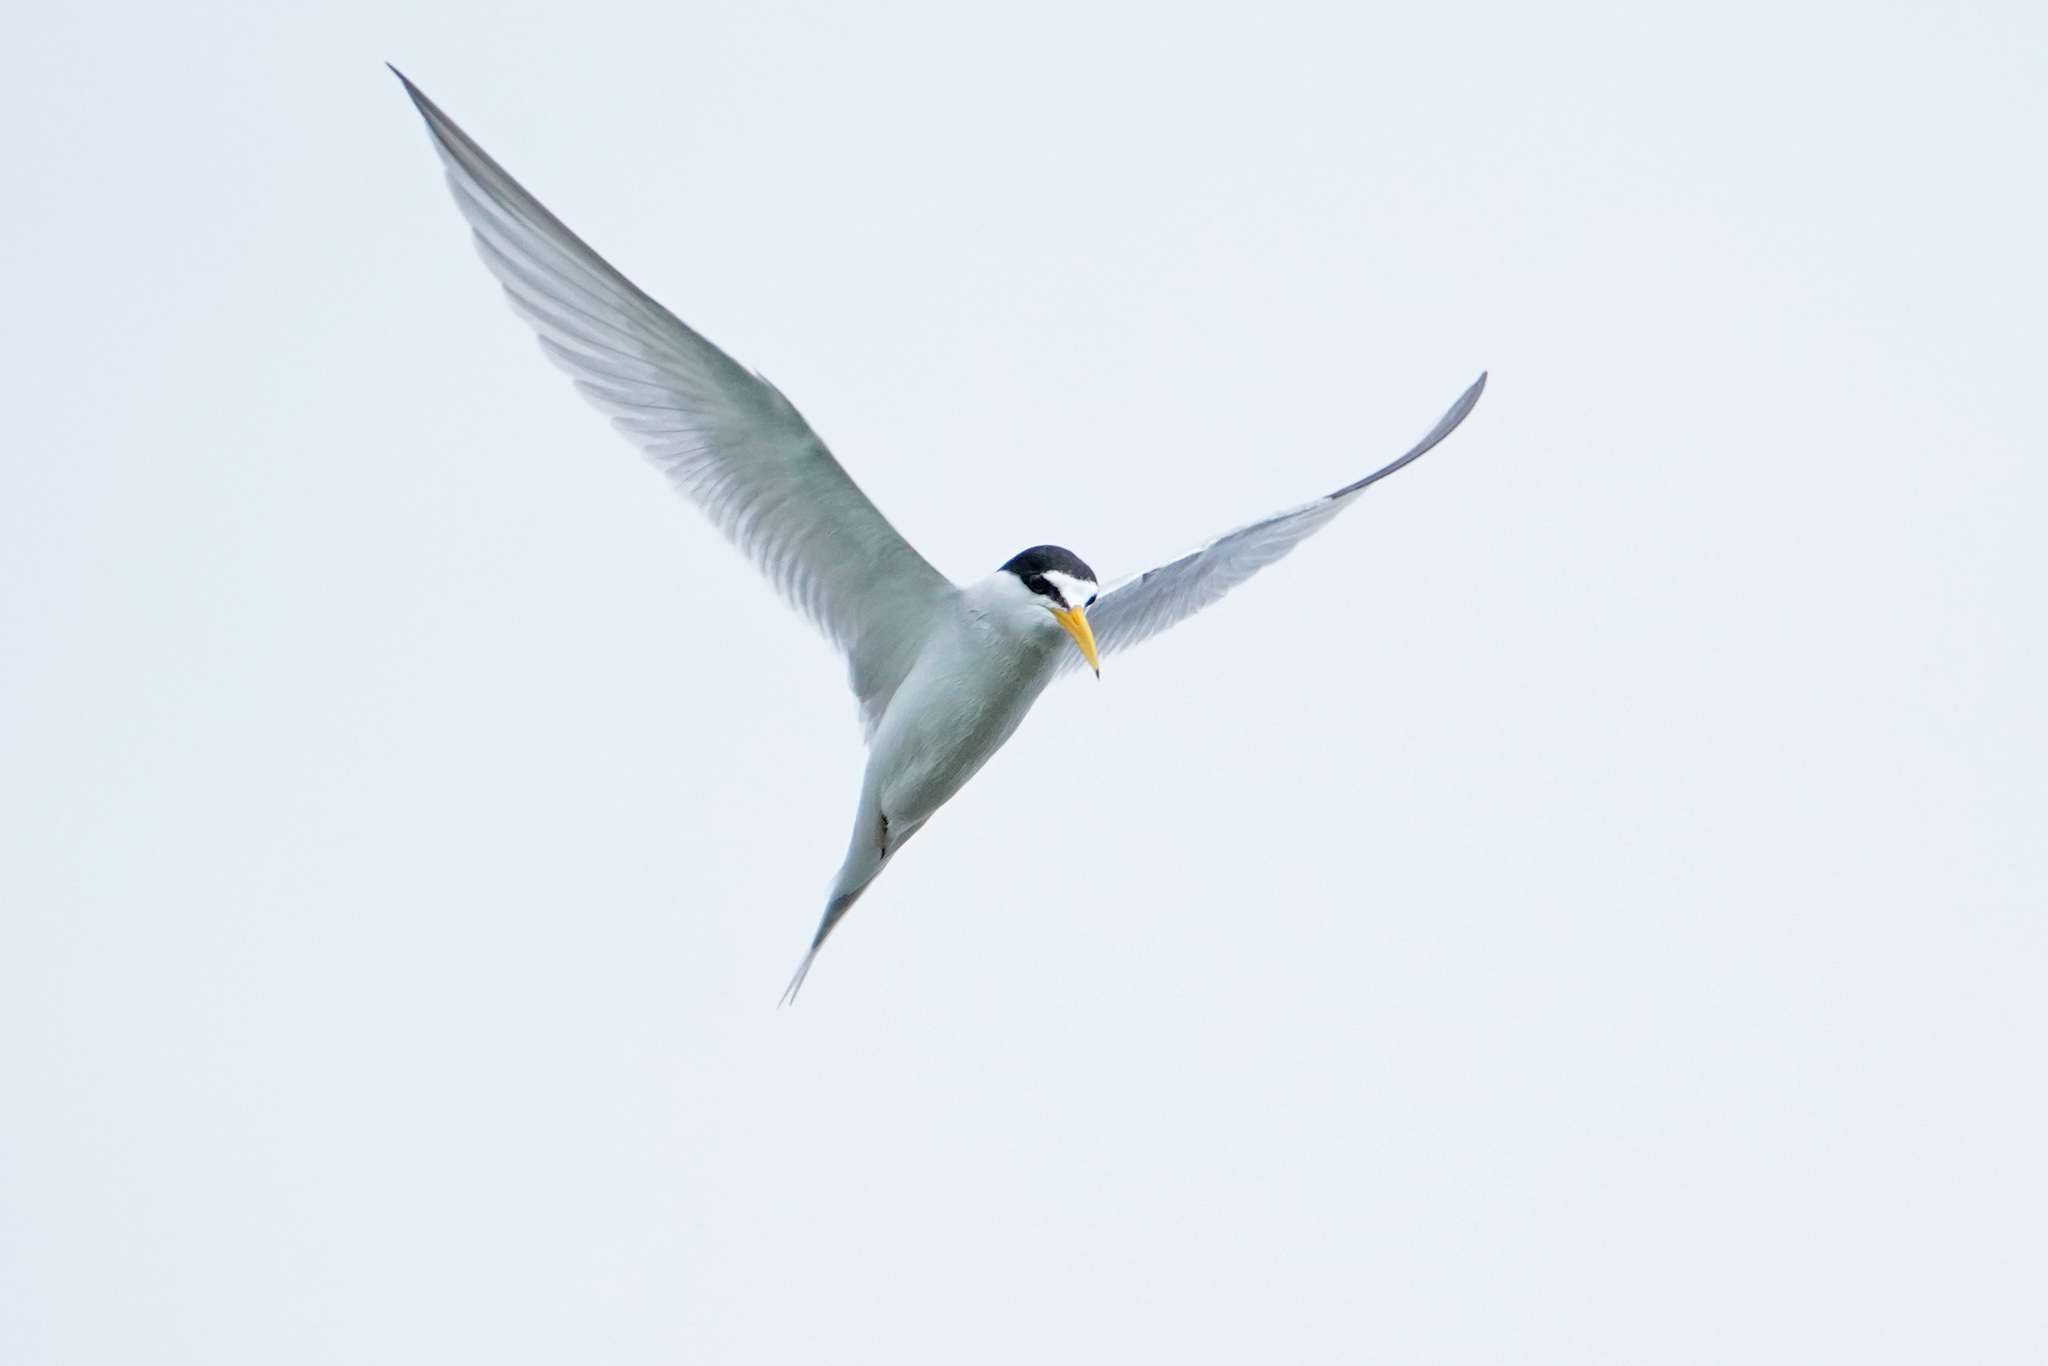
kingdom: Animalia
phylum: Chordata
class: Aves
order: Charadriiformes
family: Laridae
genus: Sternula
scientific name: Sternula antillarum
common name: Least tern
